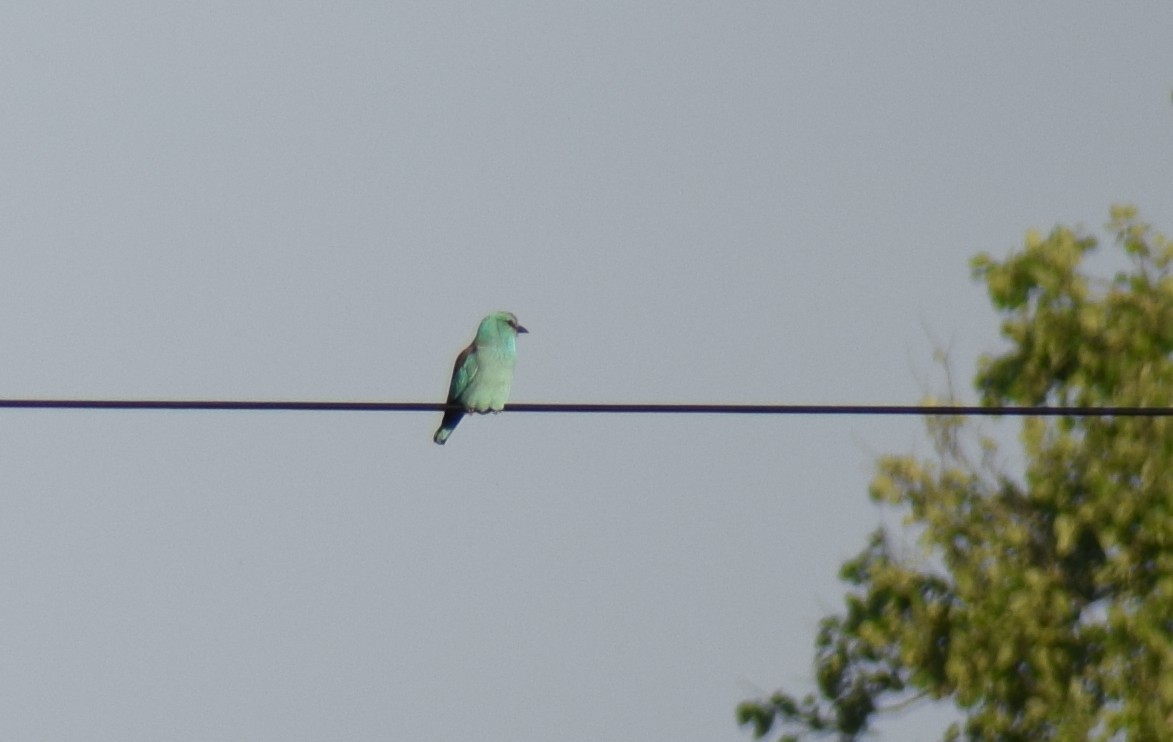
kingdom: Animalia
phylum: Chordata
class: Aves
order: Coraciiformes
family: Coraciidae
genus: Coracias
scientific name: Coracias garrulus
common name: European roller
